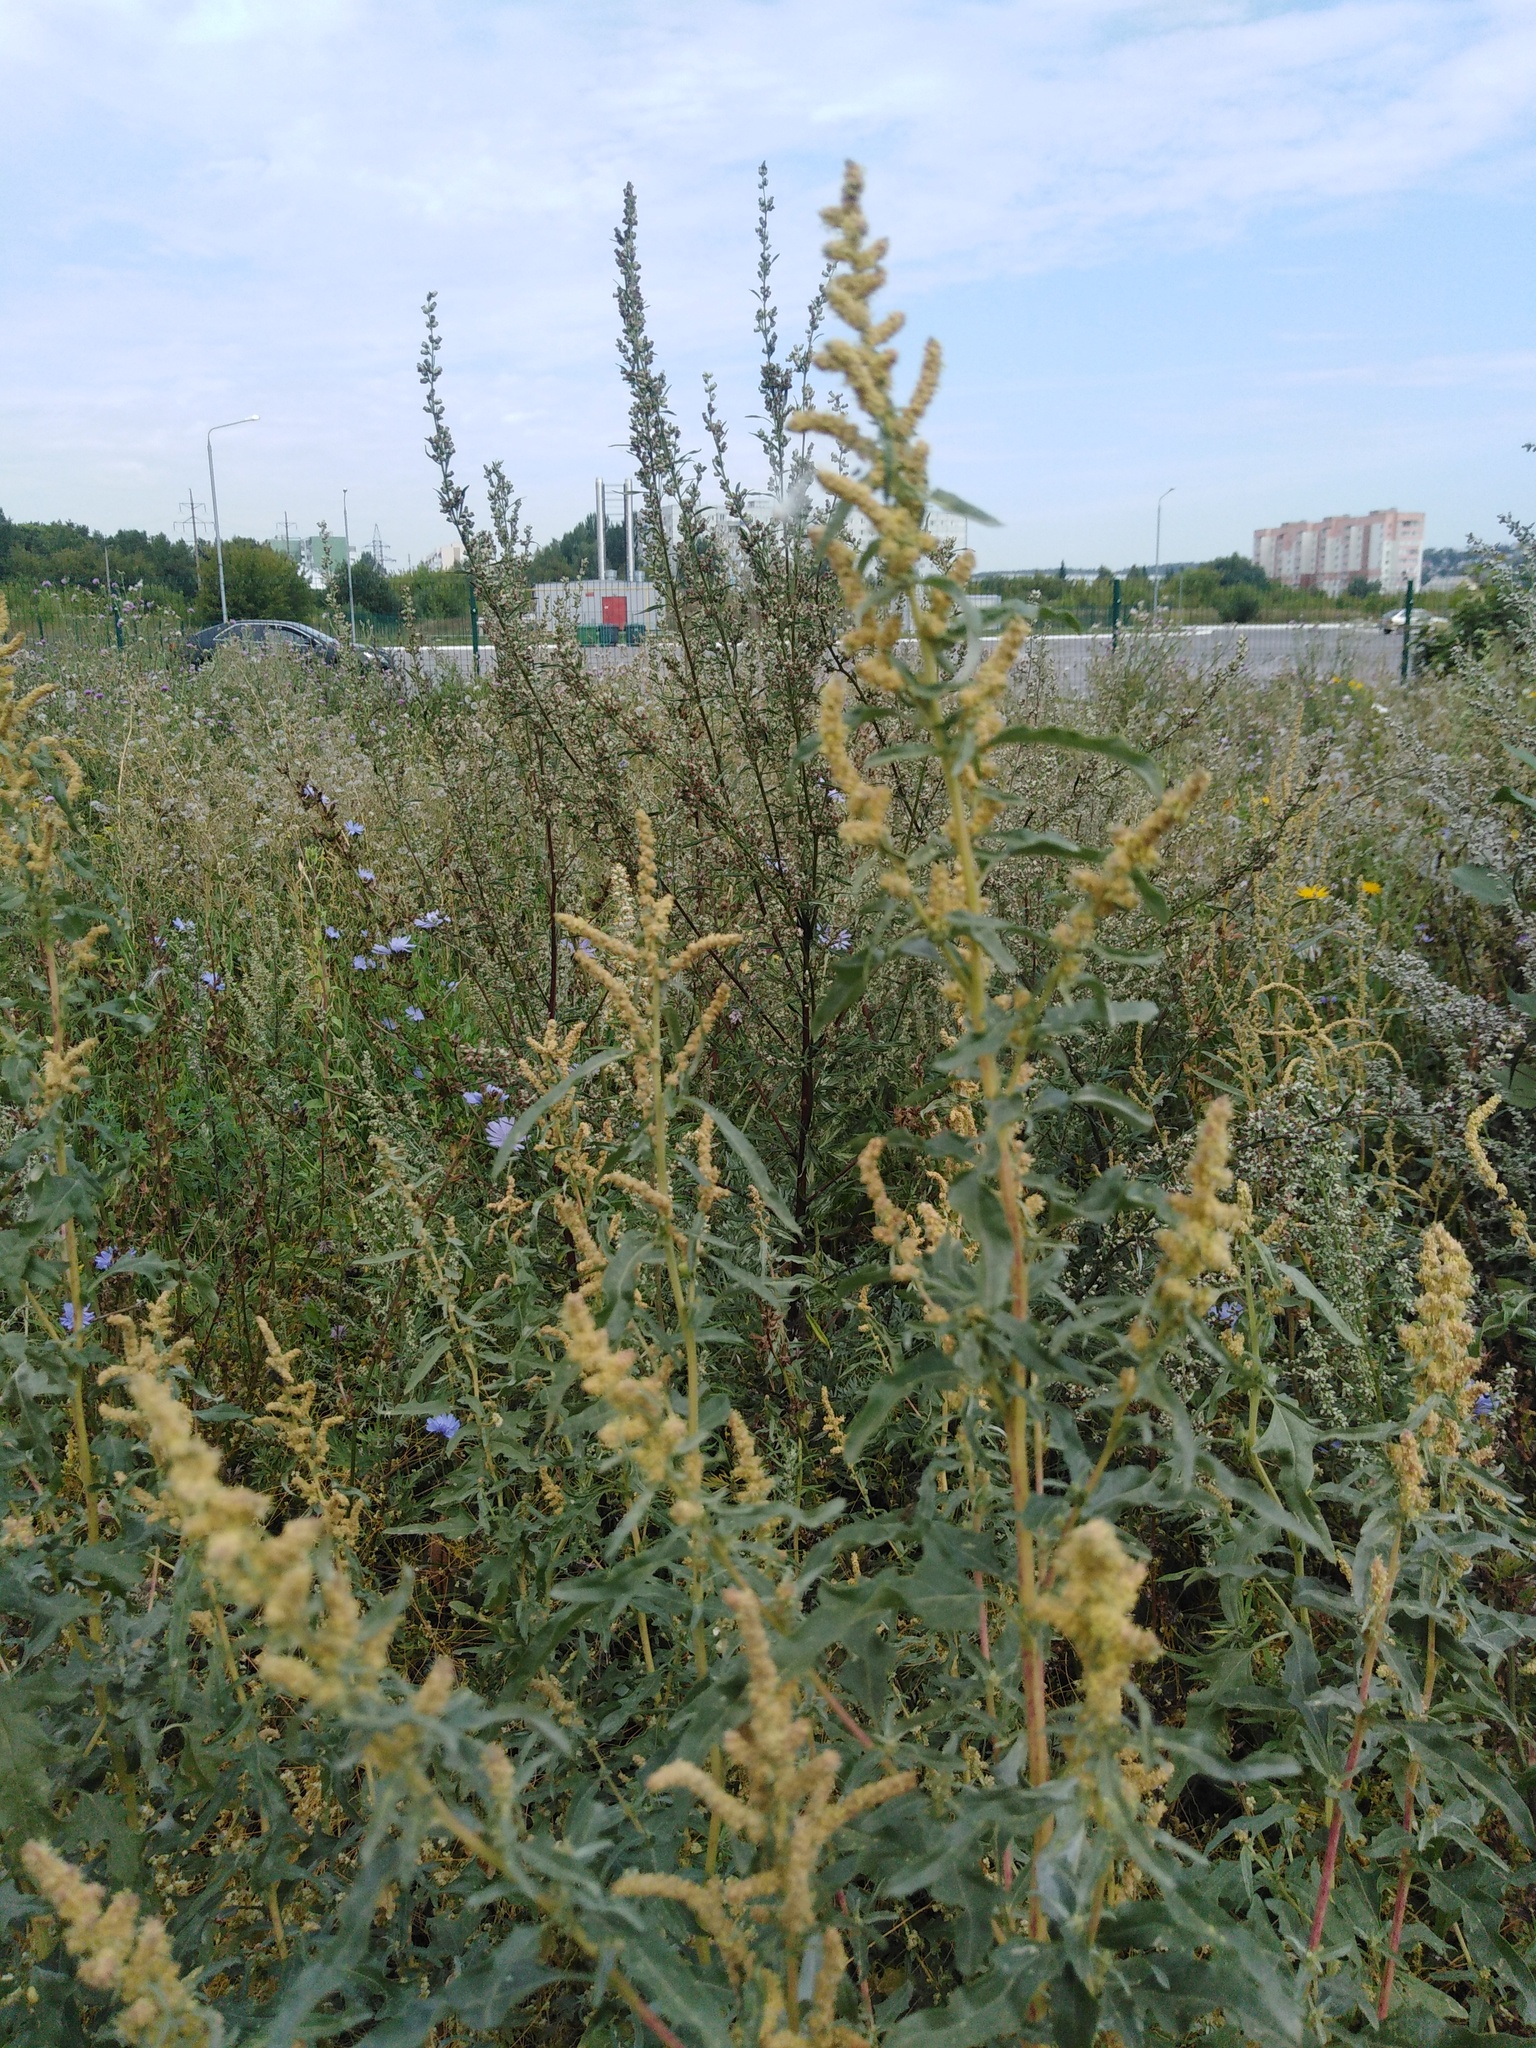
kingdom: Plantae
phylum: Tracheophyta
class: Magnoliopsida
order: Caryophyllales
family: Amaranthaceae
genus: Atriplex
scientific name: Atriplex tatarica
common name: Tatarian orache
